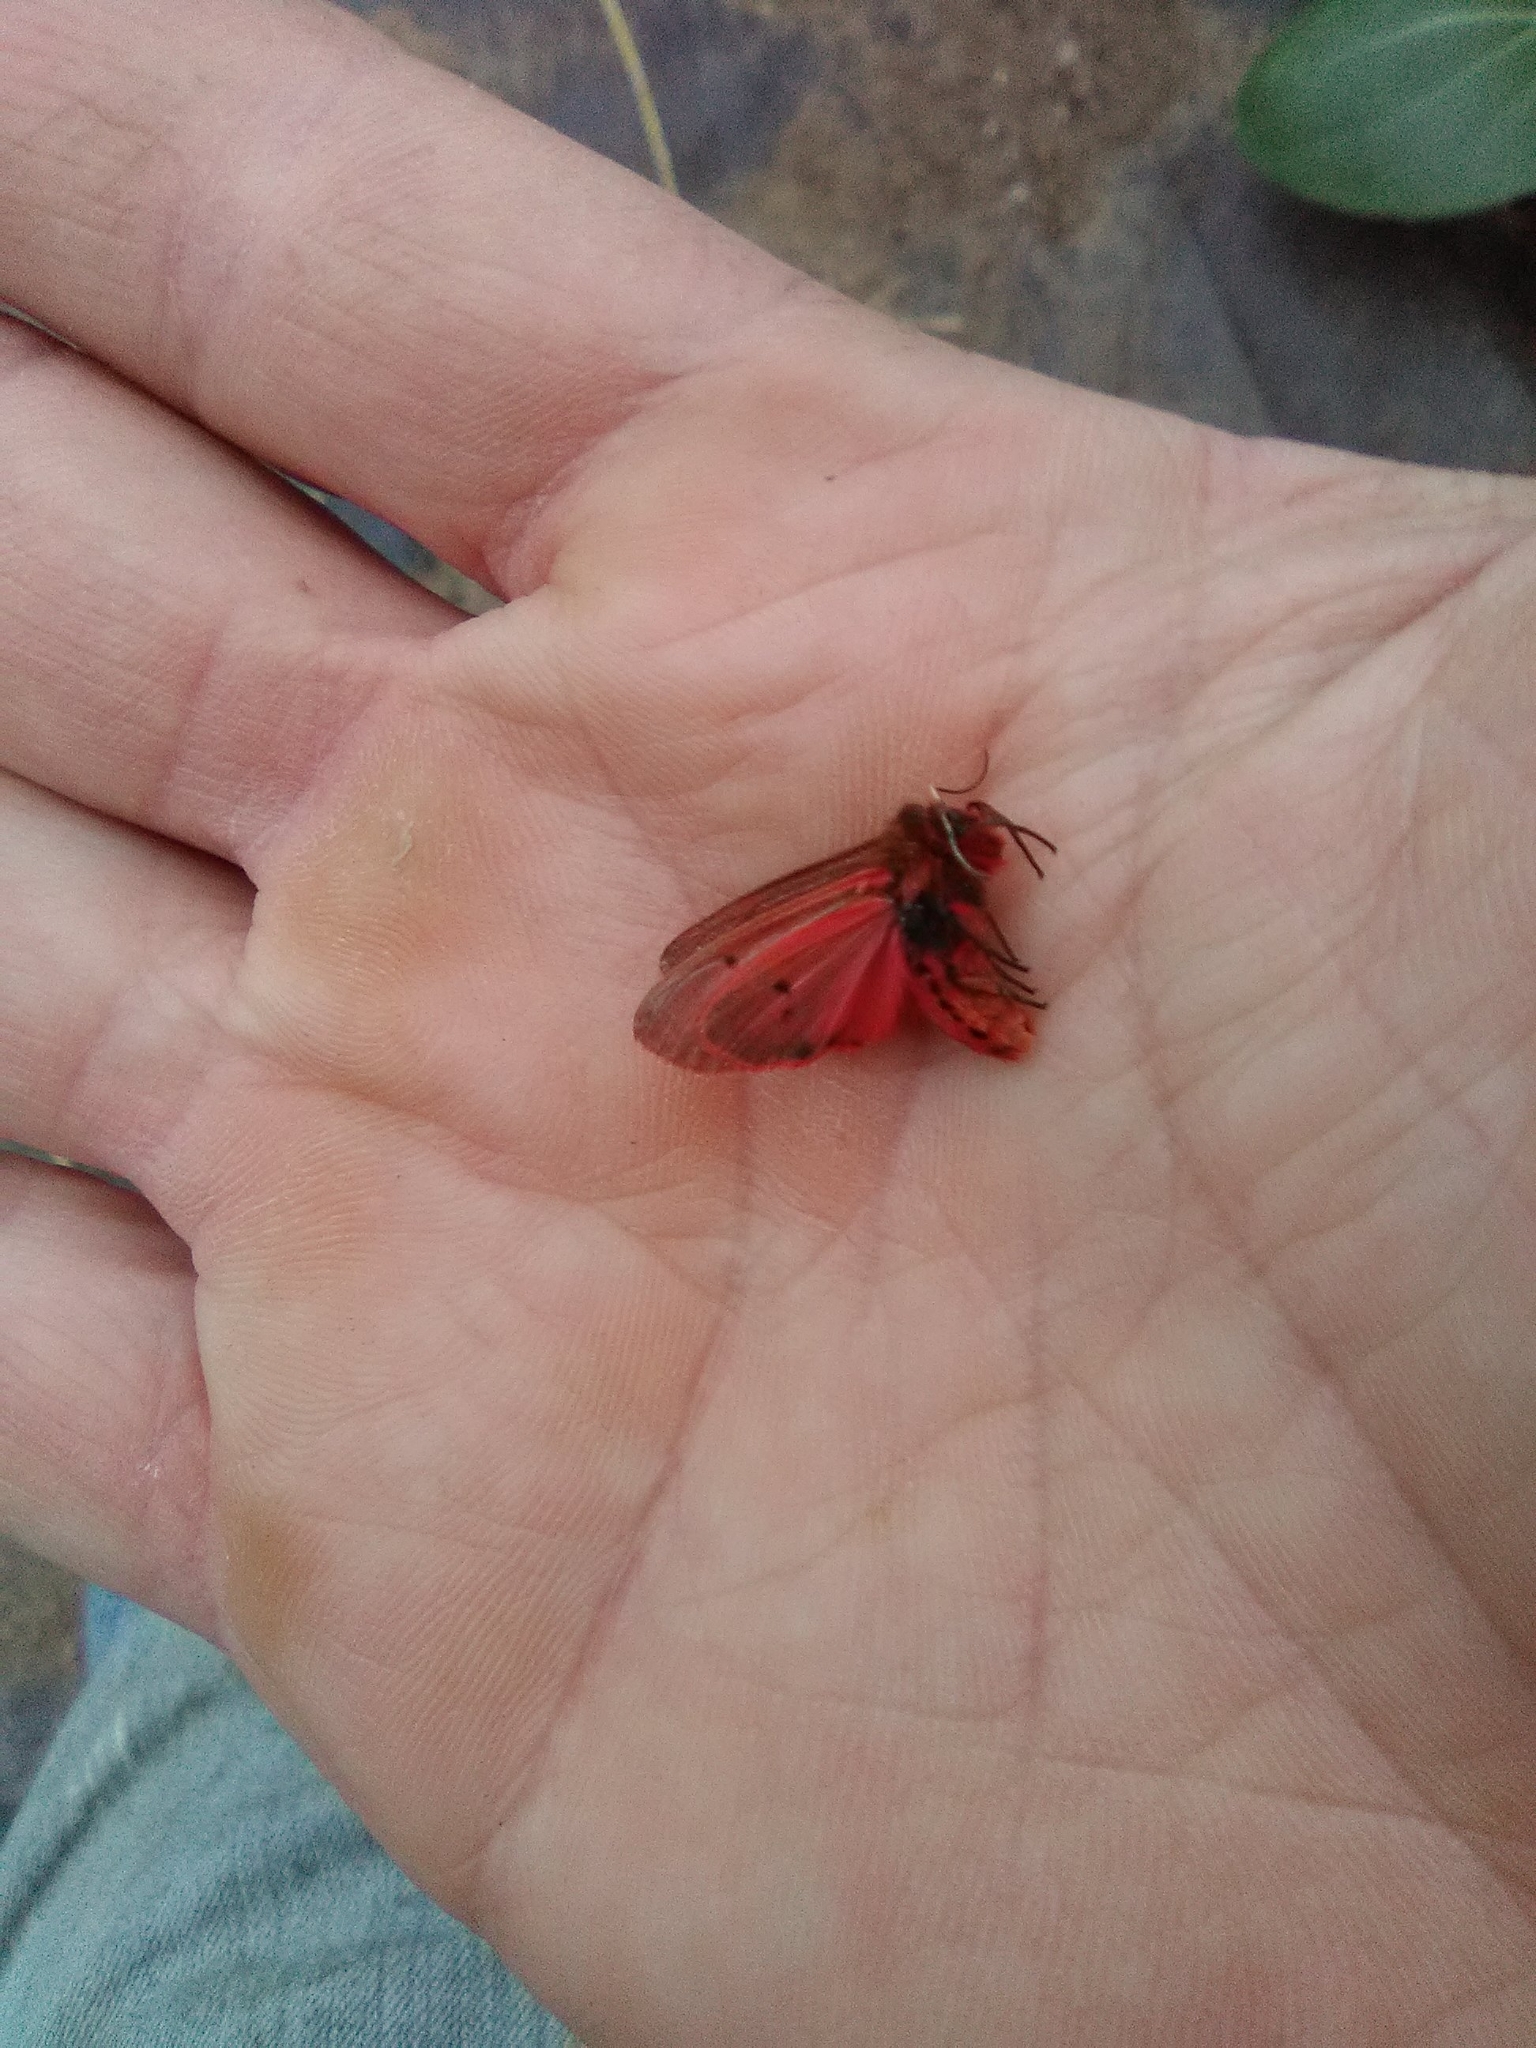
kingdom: Animalia
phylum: Arthropoda
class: Insecta
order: Lepidoptera
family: Erebidae
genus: Phragmatobia
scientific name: Phragmatobia fuliginosa
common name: Ruby tiger
